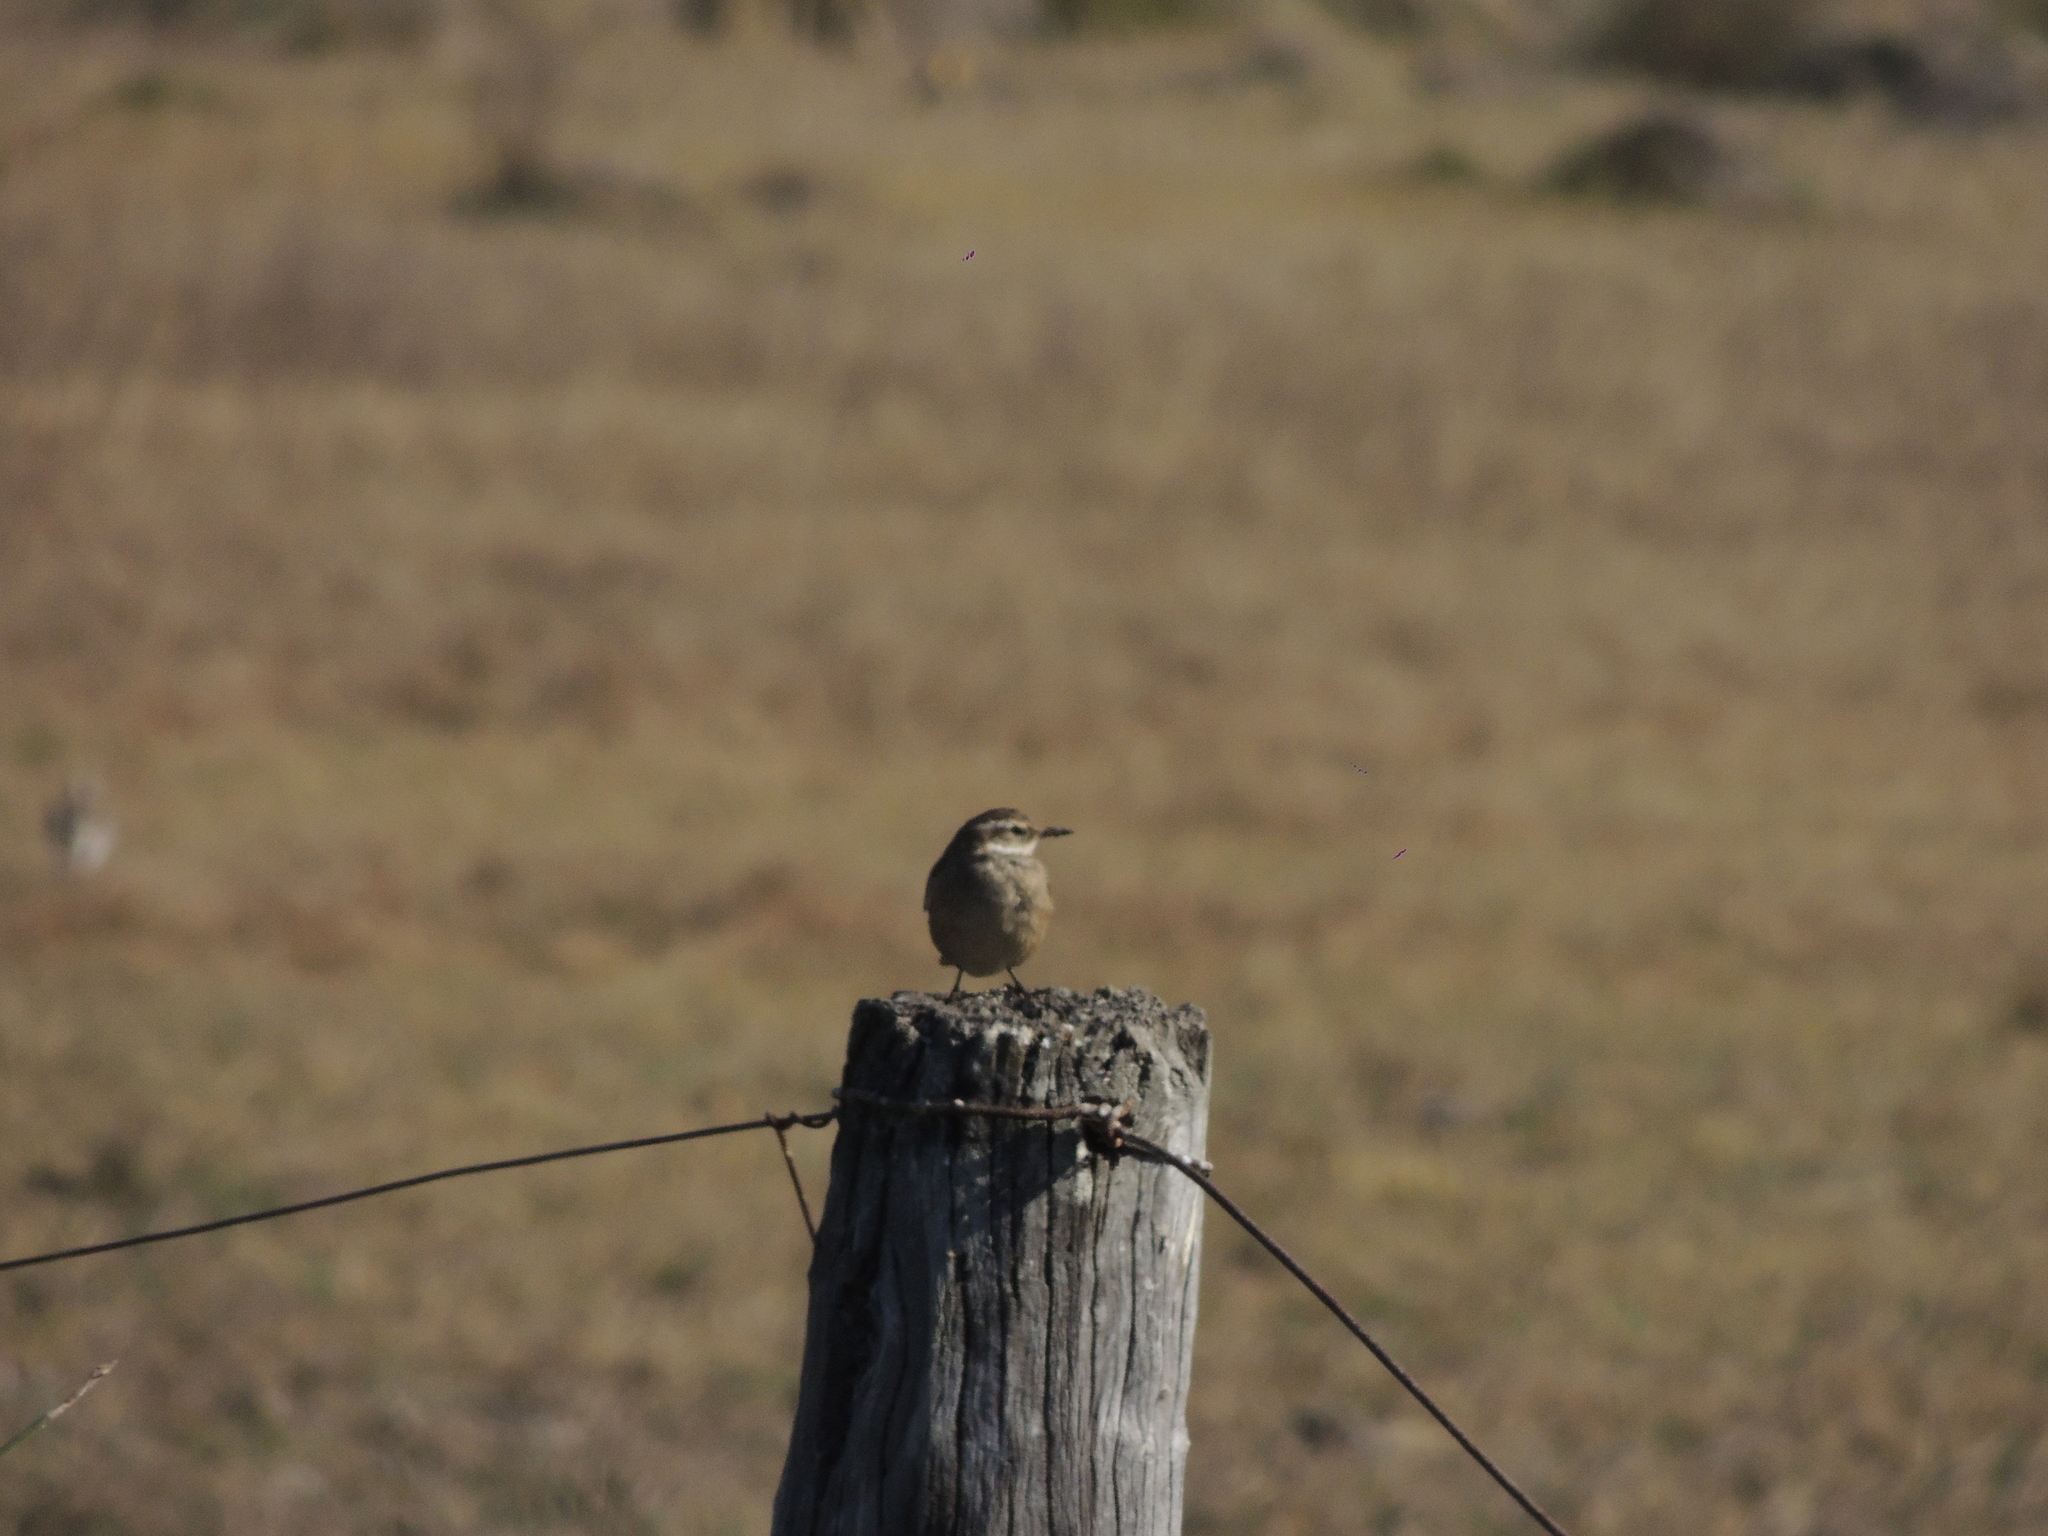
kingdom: Animalia
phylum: Chordata
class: Aves
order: Passeriformes
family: Furnariidae
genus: Cinclodes
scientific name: Cinclodes fuscus
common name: Buff-winged cinclodes
